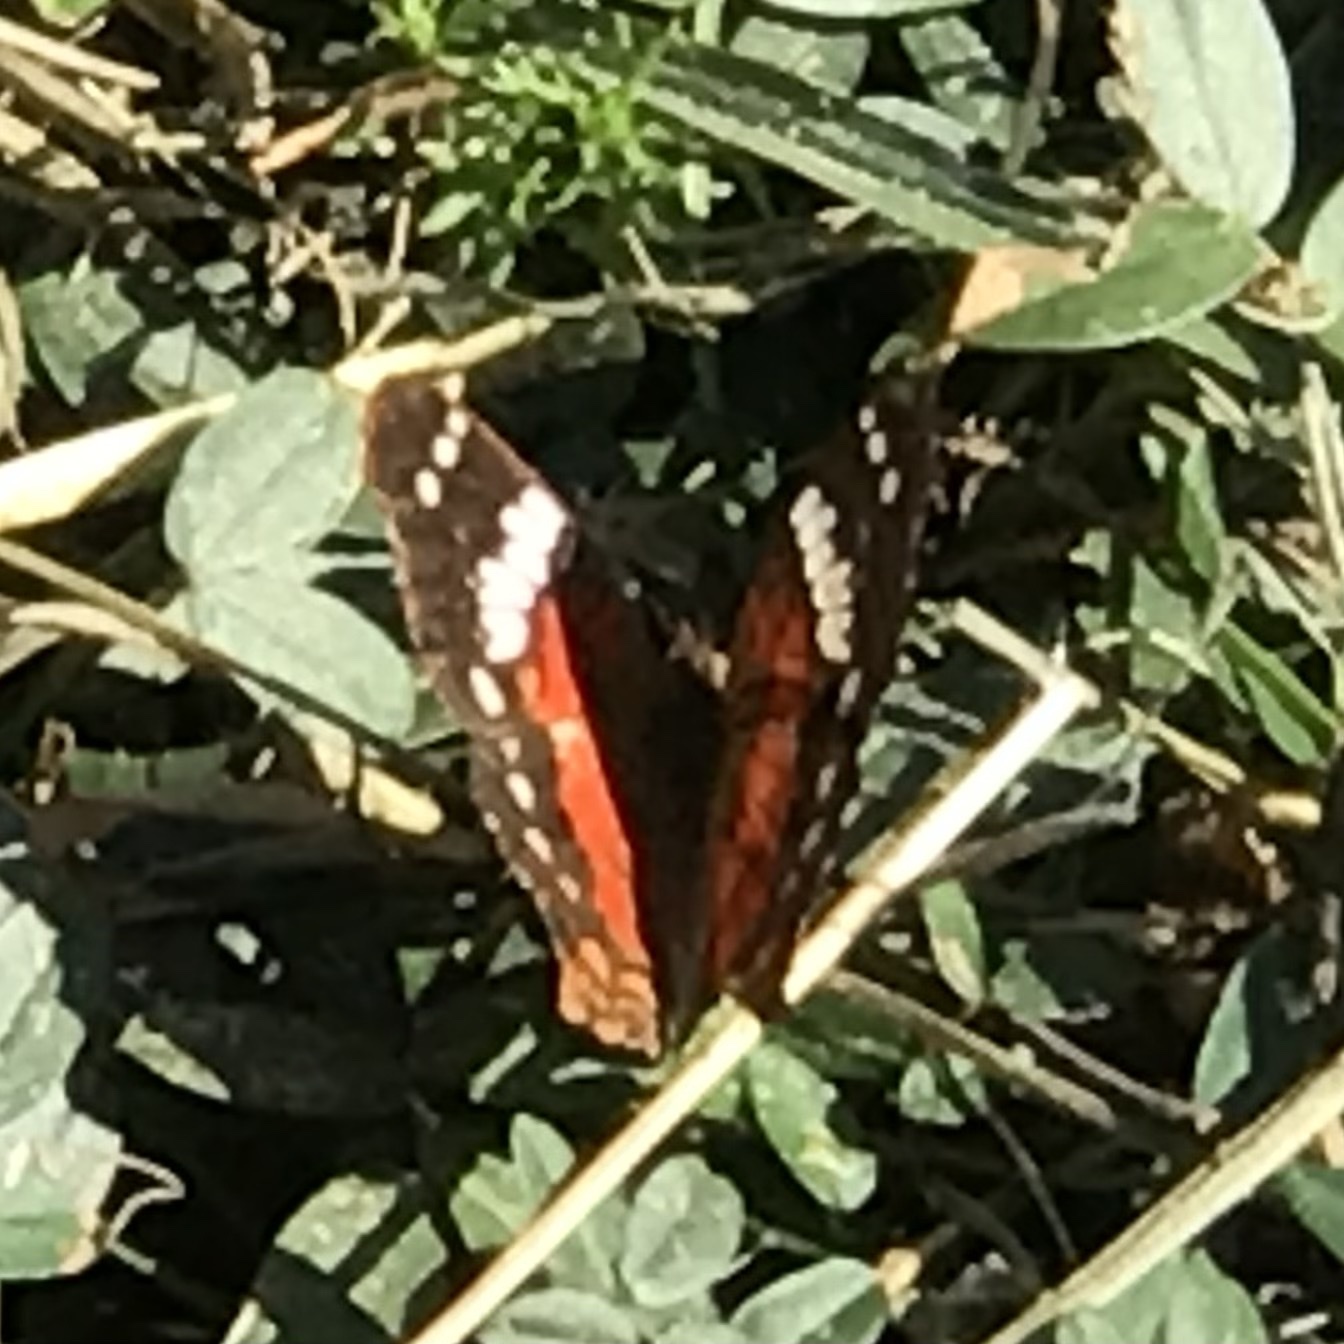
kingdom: Animalia
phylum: Arthropoda
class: Insecta
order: Lepidoptera
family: Nymphalidae
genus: Anartia
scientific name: Anartia amathea
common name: Red peacock
